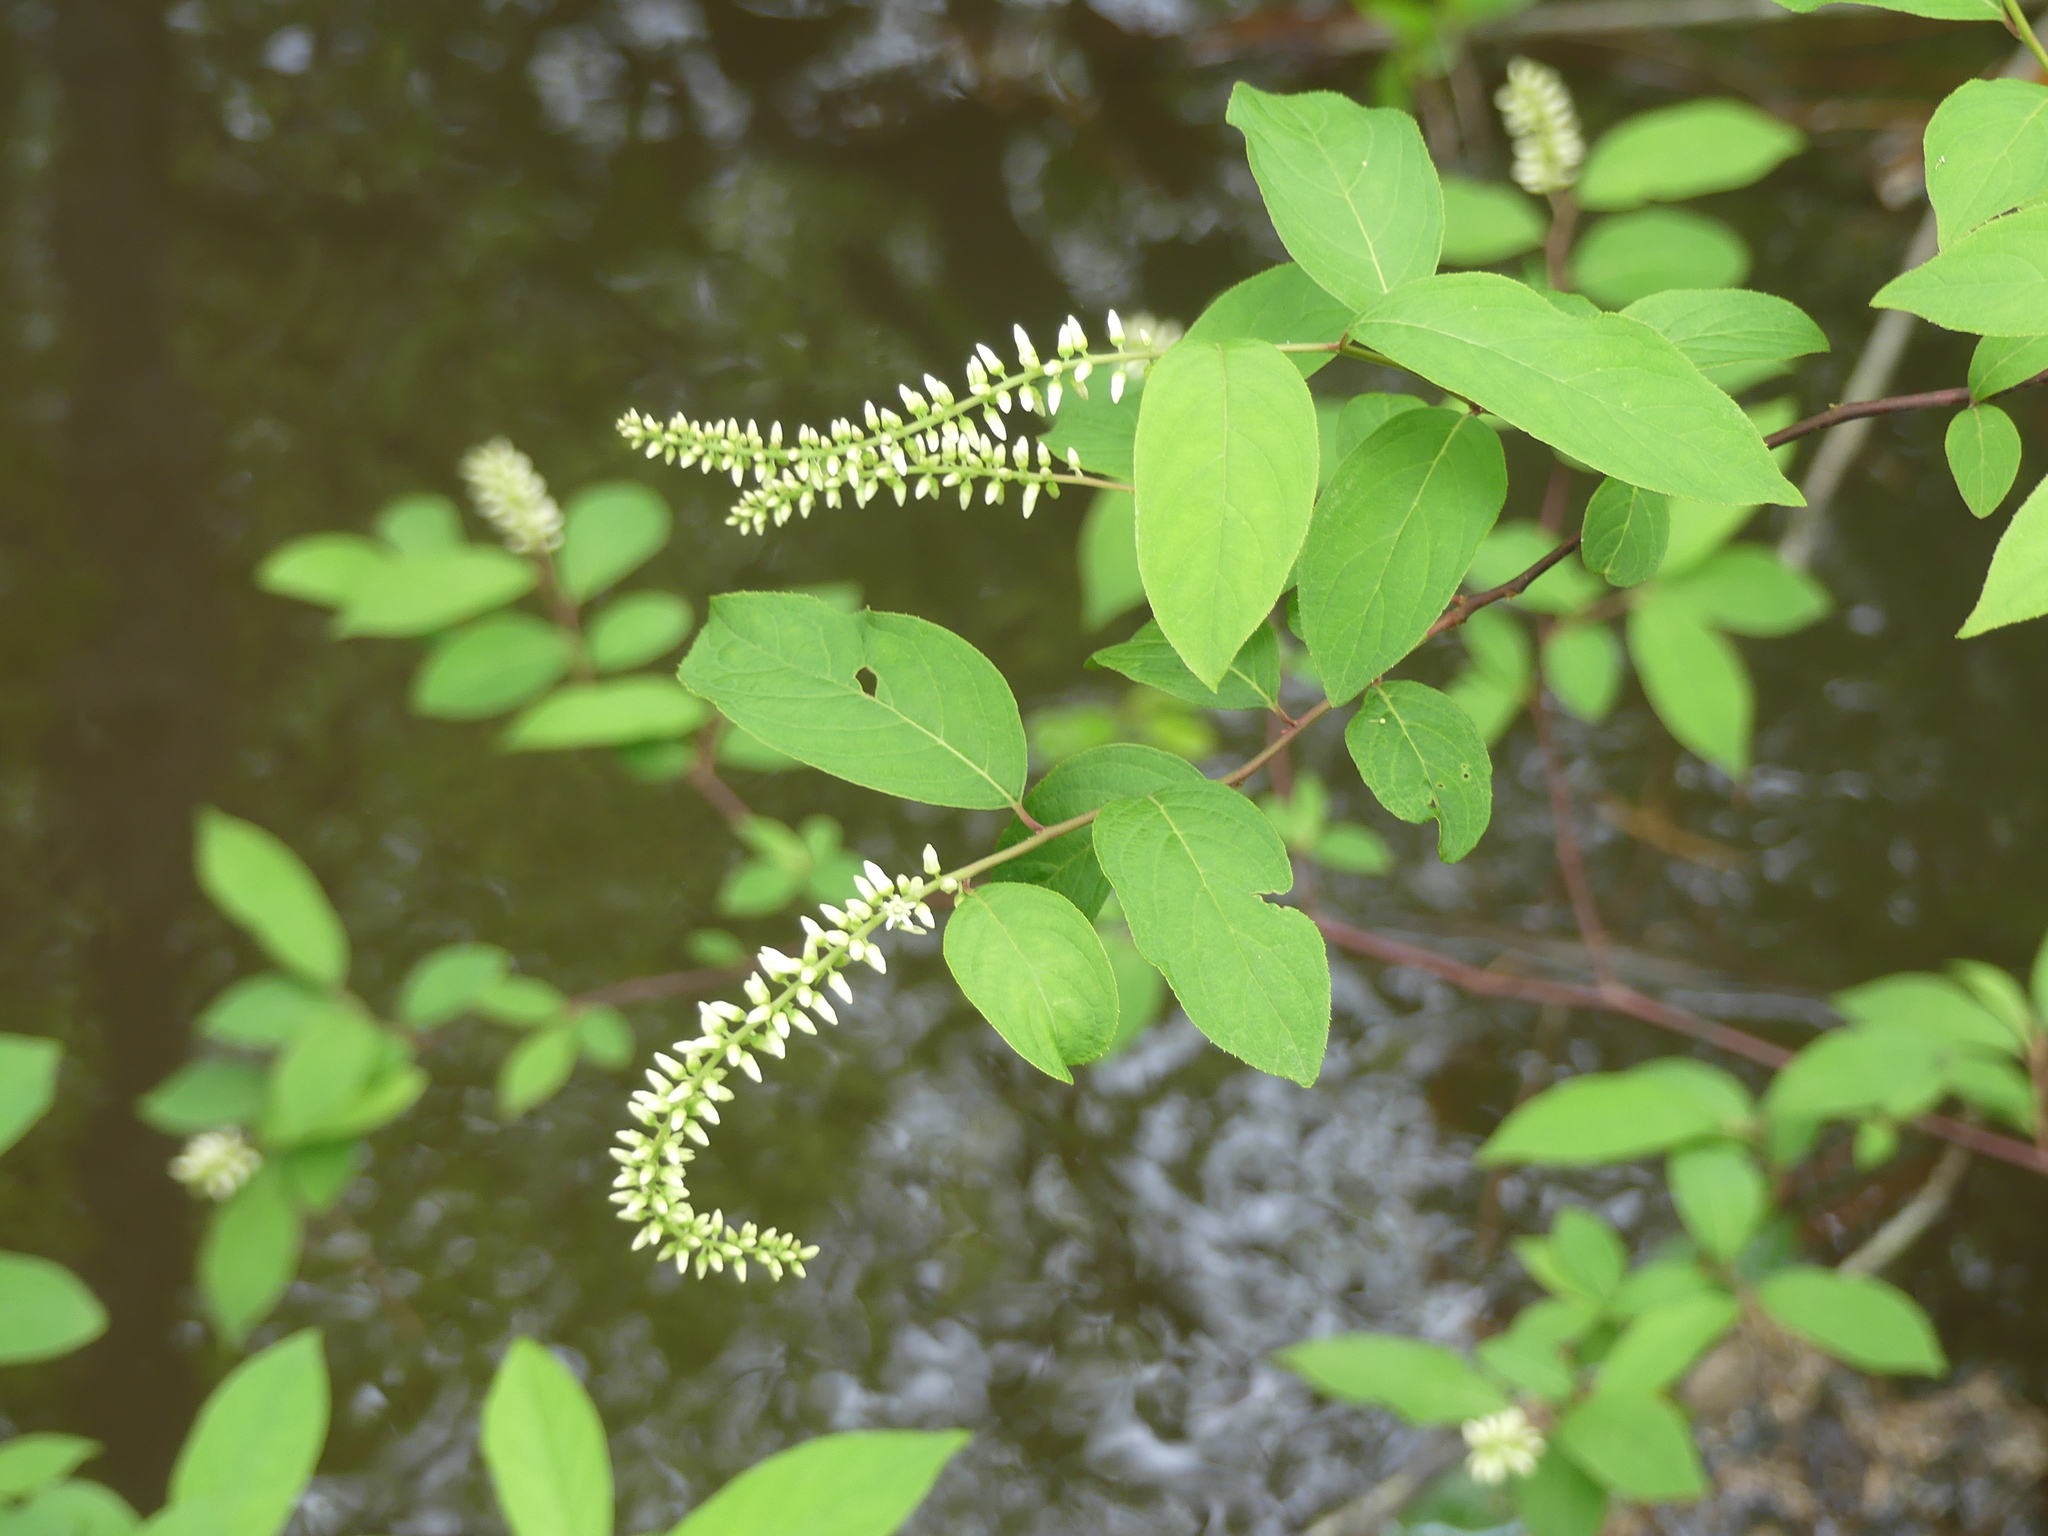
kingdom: Plantae
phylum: Tracheophyta
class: Magnoliopsida
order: Saxifragales
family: Iteaceae
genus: Itea
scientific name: Itea virginica
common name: Sweetspire
